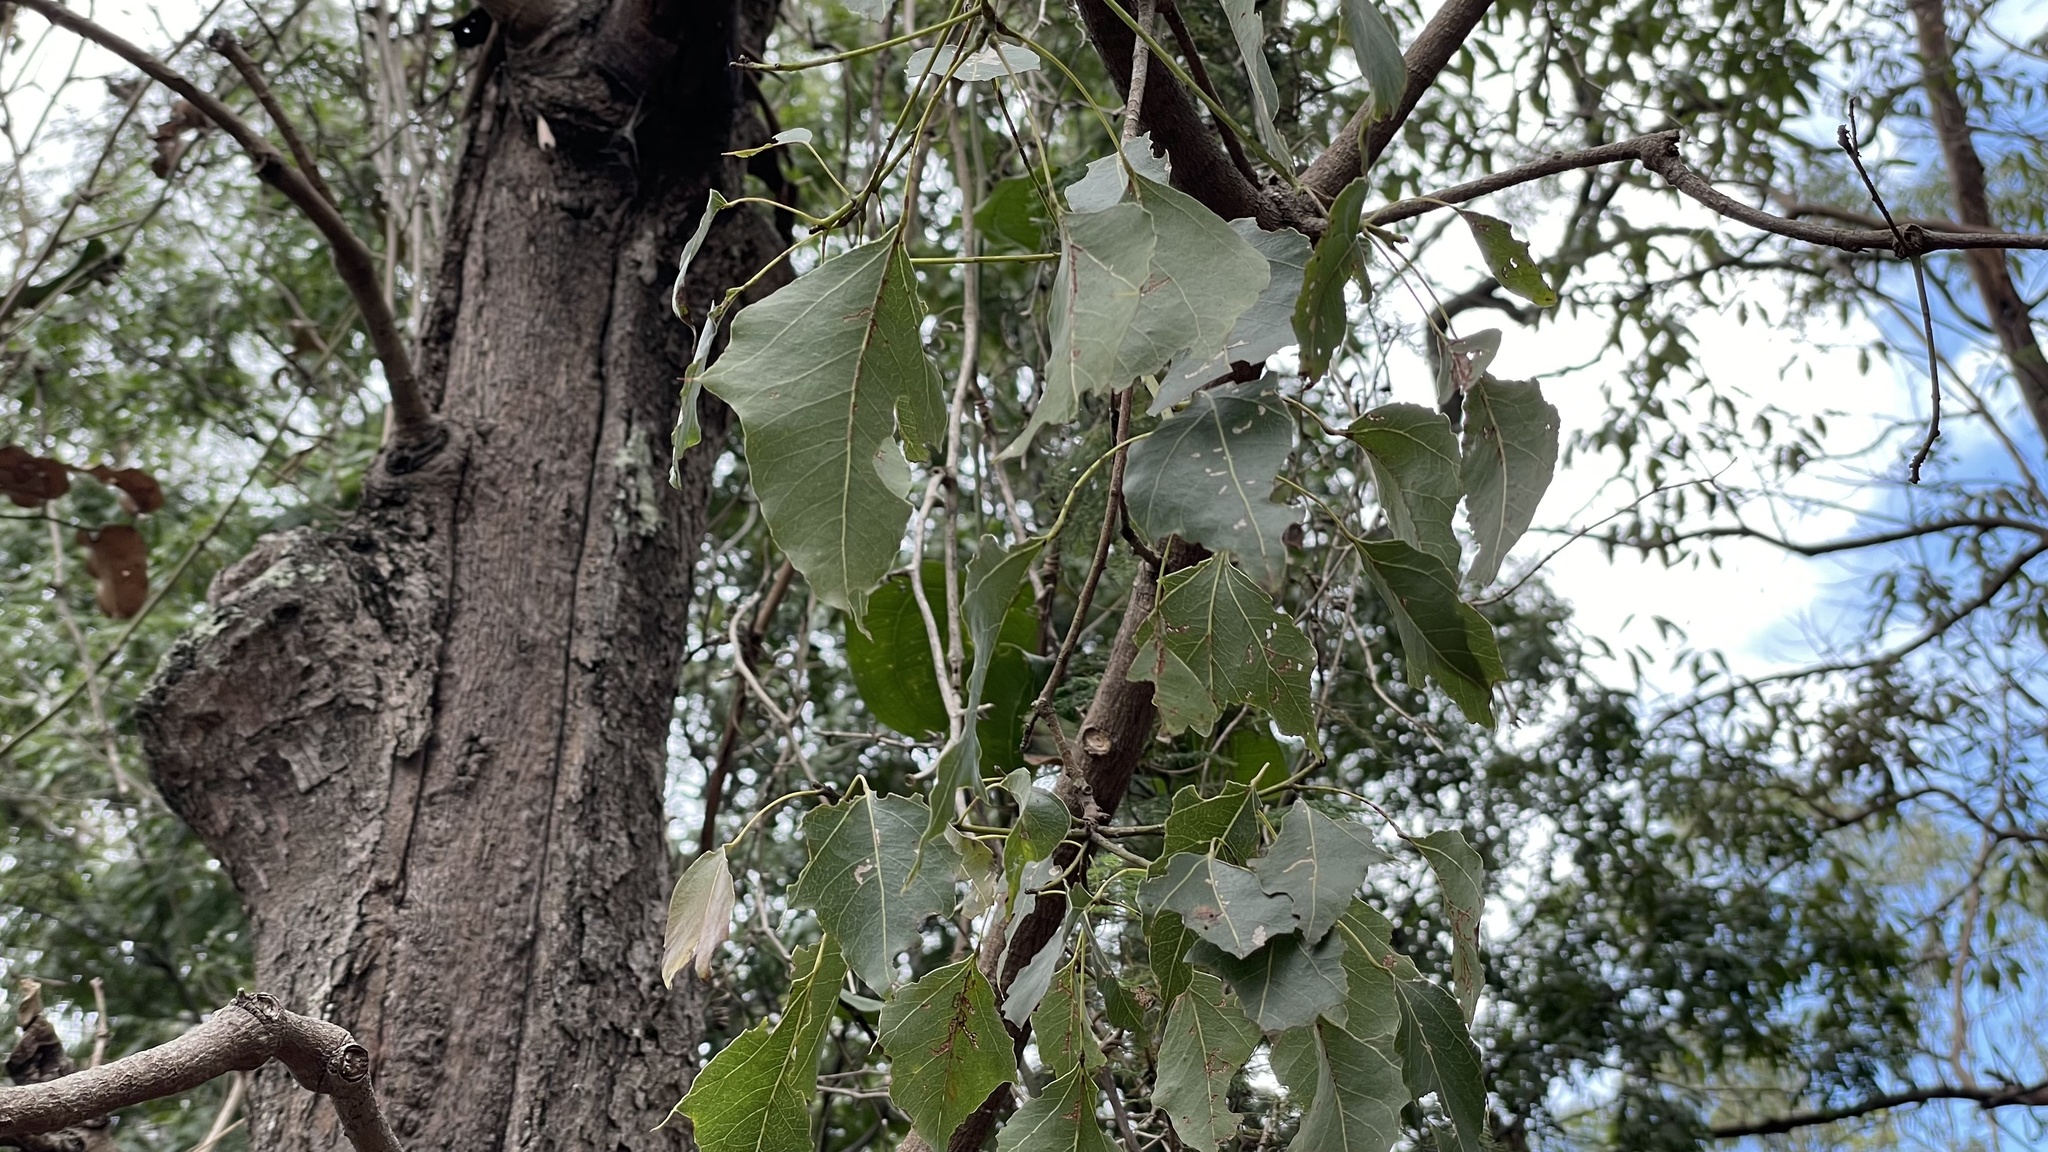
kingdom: Plantae
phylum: Tracheophyta
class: Magnoliopsida
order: Malvales
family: Malvaceae
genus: Brachychiton
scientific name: Brachychiton populneus
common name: Kurrajong
